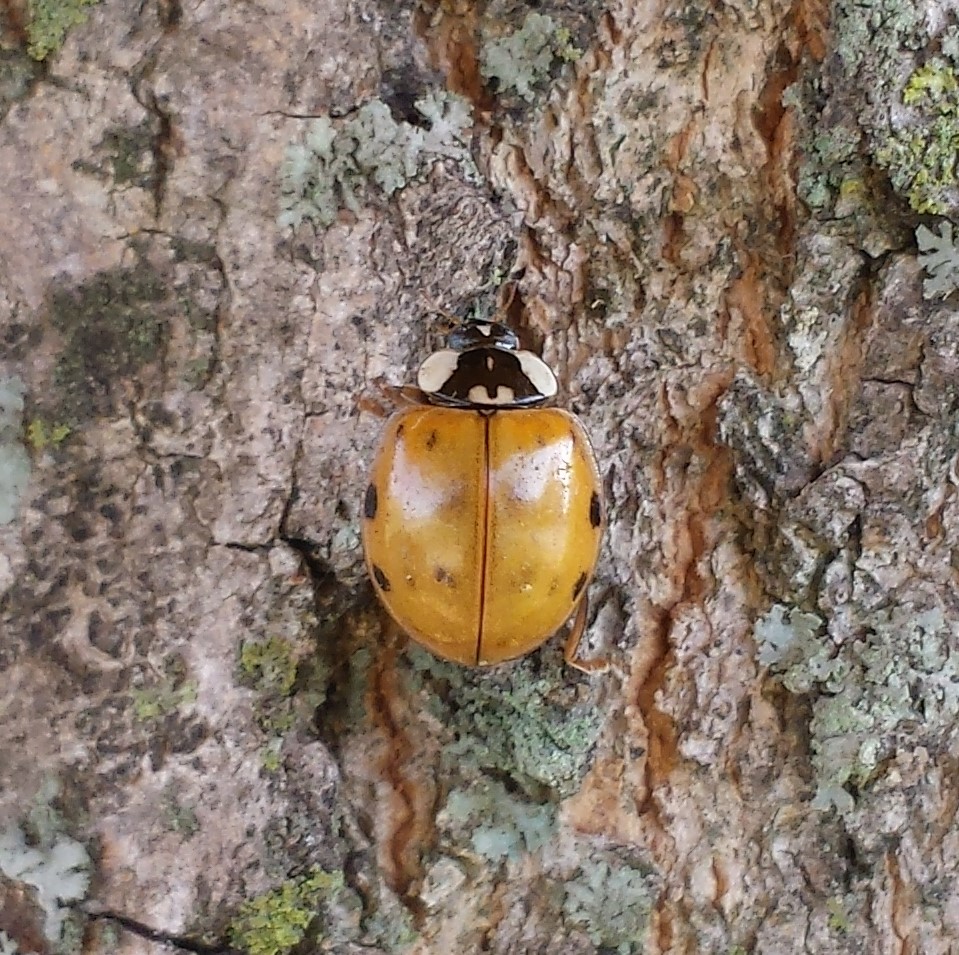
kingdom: Animalia
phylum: Arthropoda
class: Insecta
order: Coleoptera
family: Coccinellidae
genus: Harmonia
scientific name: Harmonia axyridis
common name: Harlequin ladybird
